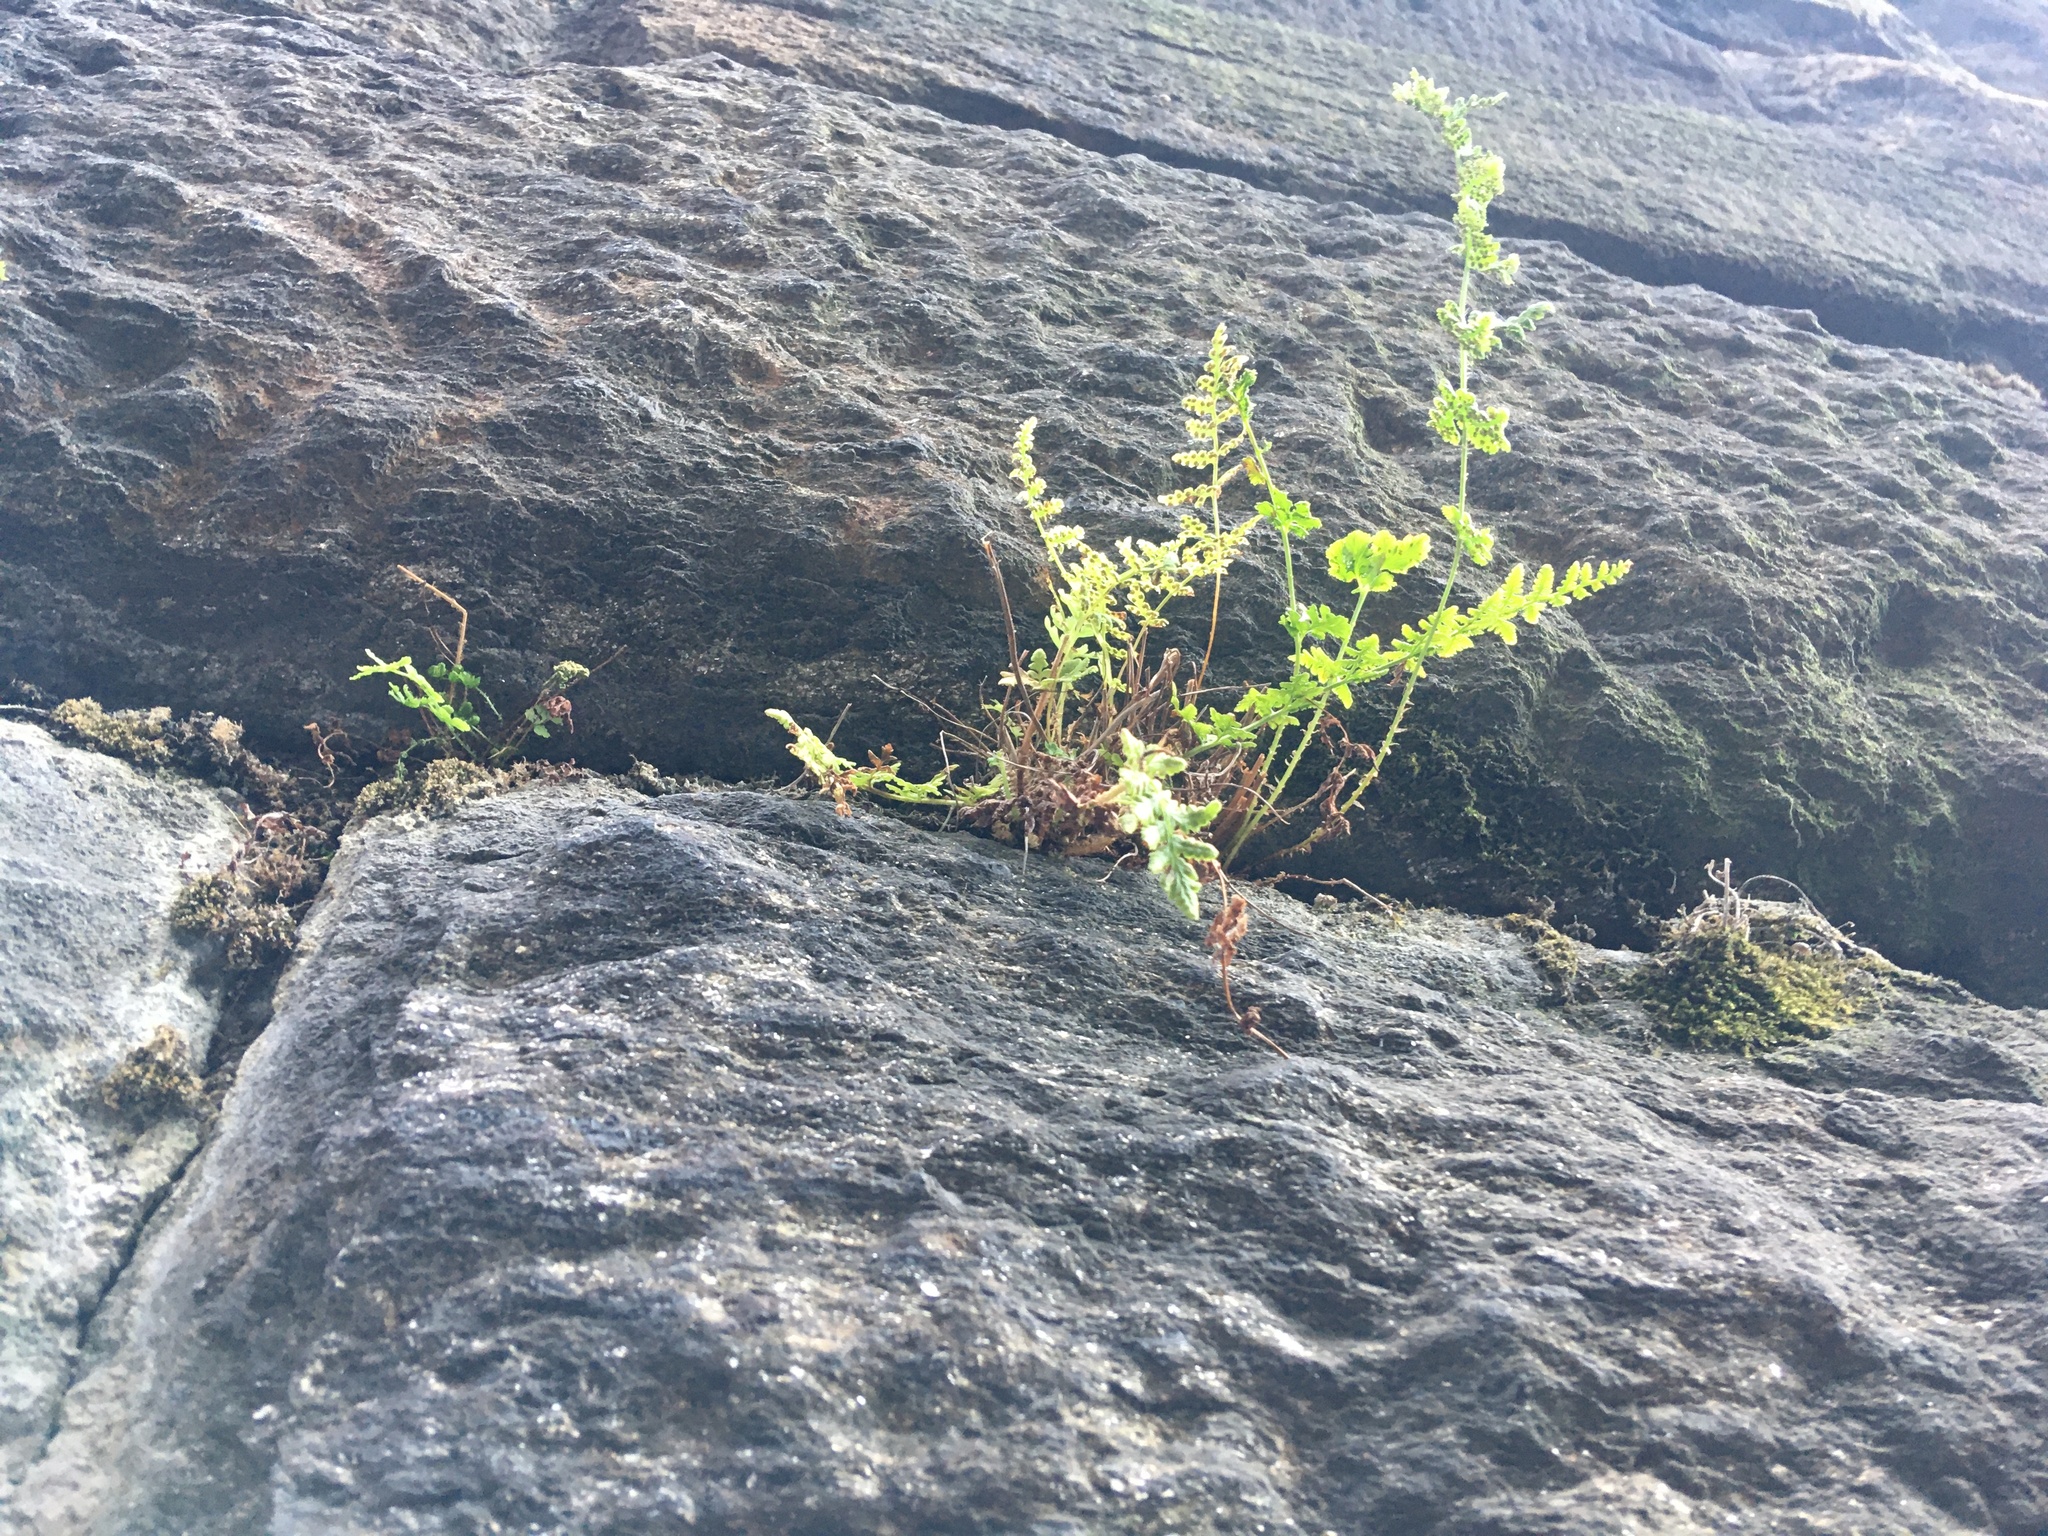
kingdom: Plantae
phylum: Tracheophyta
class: Polypodiopsida
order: Polypodiales
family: Woodsiaceae
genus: Physematium
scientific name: Physematium obtusum
